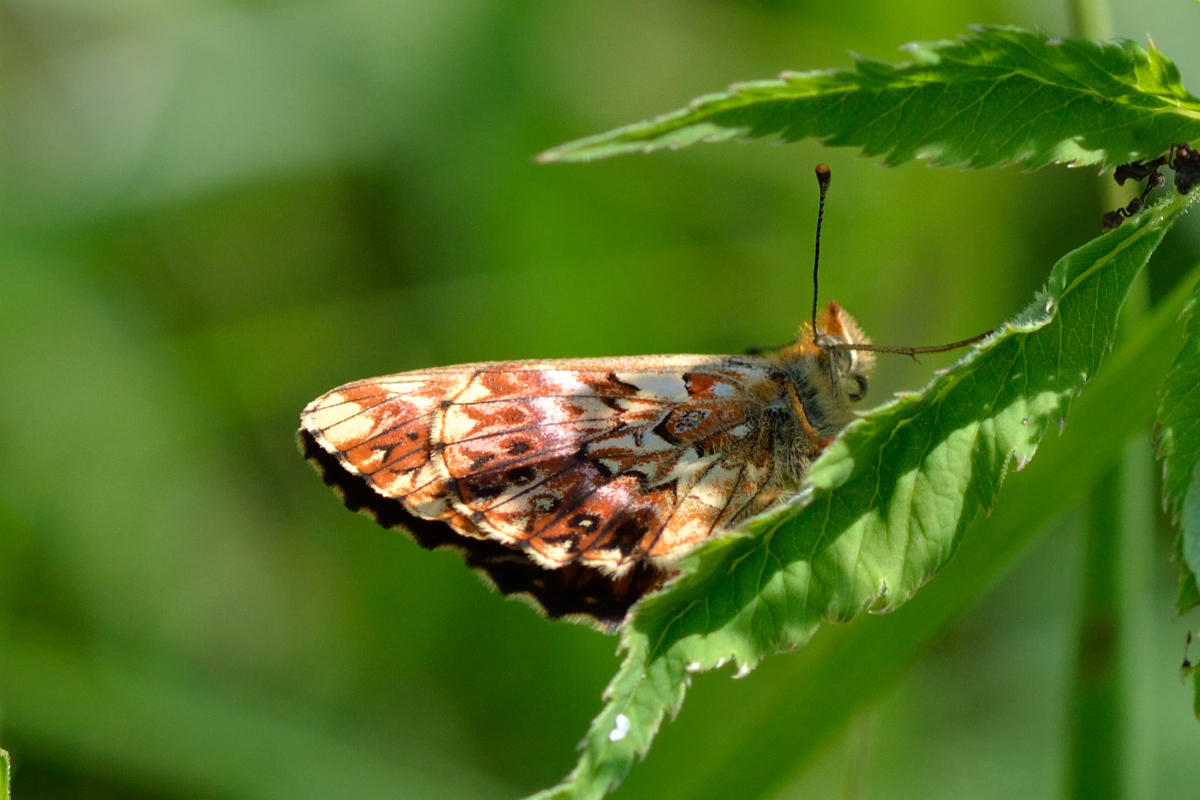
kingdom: Animalia
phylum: Arthropoda
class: Insecta
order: Lepidoptera
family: Nymphalidae
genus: Boloria
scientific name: Boloria titania
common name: Titania's fritillary
